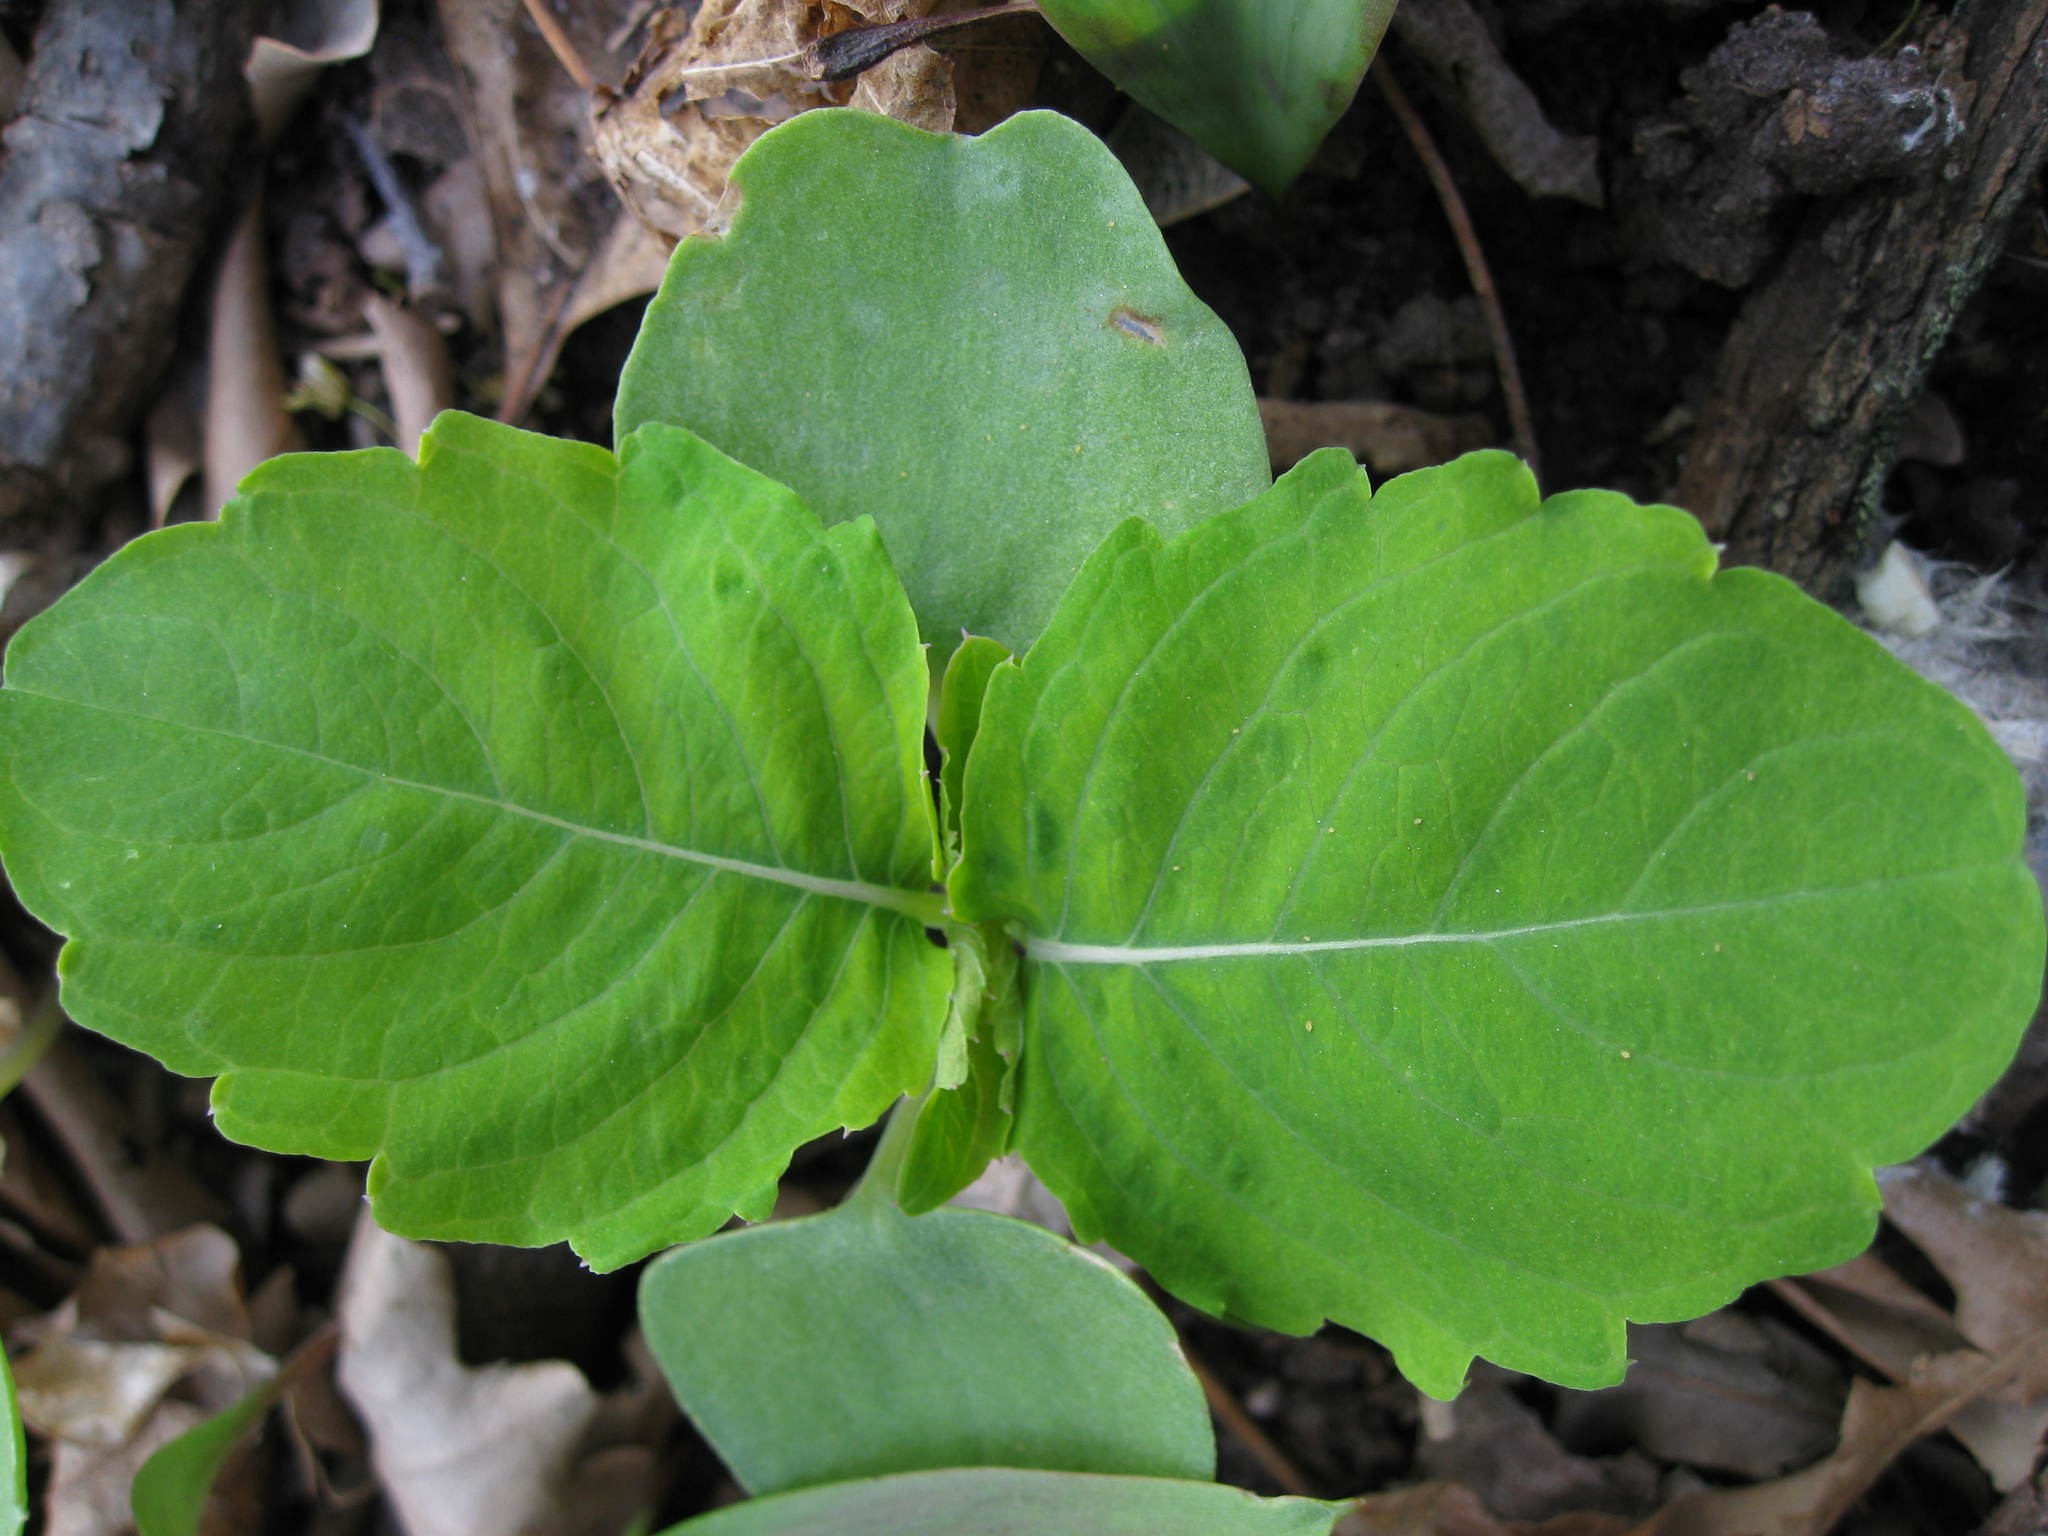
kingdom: Plantae
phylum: Tracheophyta
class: Magnoliopsida
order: Ericales
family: Balsaminaceae
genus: Impatiens
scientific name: Impatiens capensis
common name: Orange balsam
